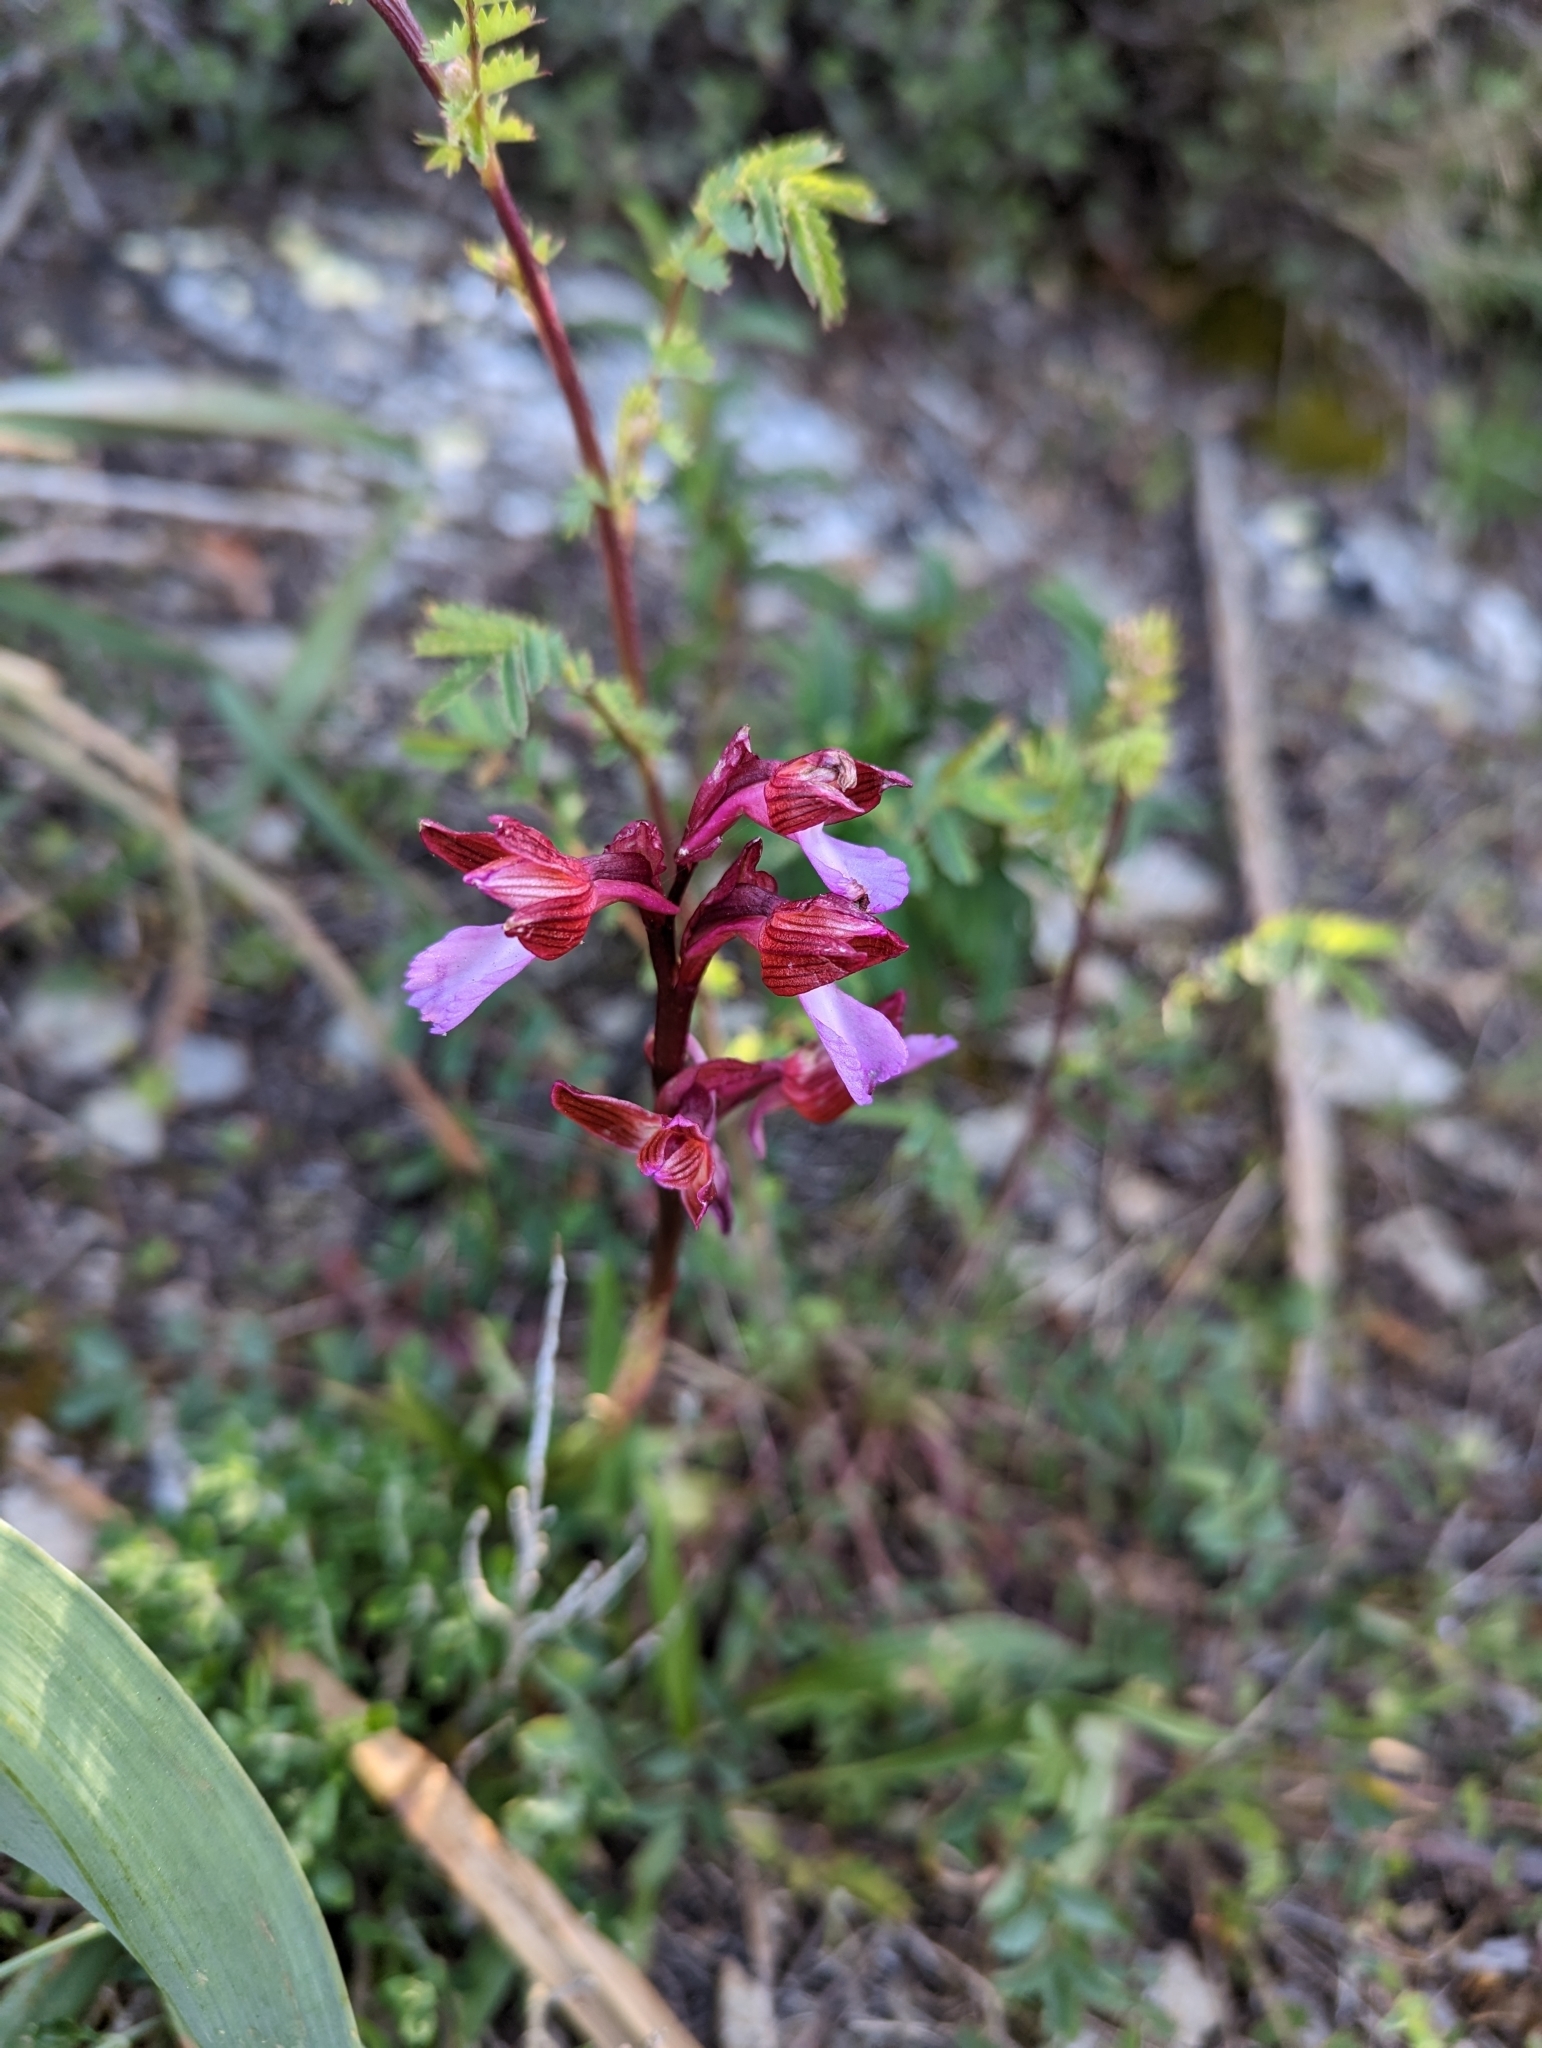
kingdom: Plantae
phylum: Tracheophyta
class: Liliopsida
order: Asparagales
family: Orchidaceae
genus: Anacamptis
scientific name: Anacamptis papilionacea
